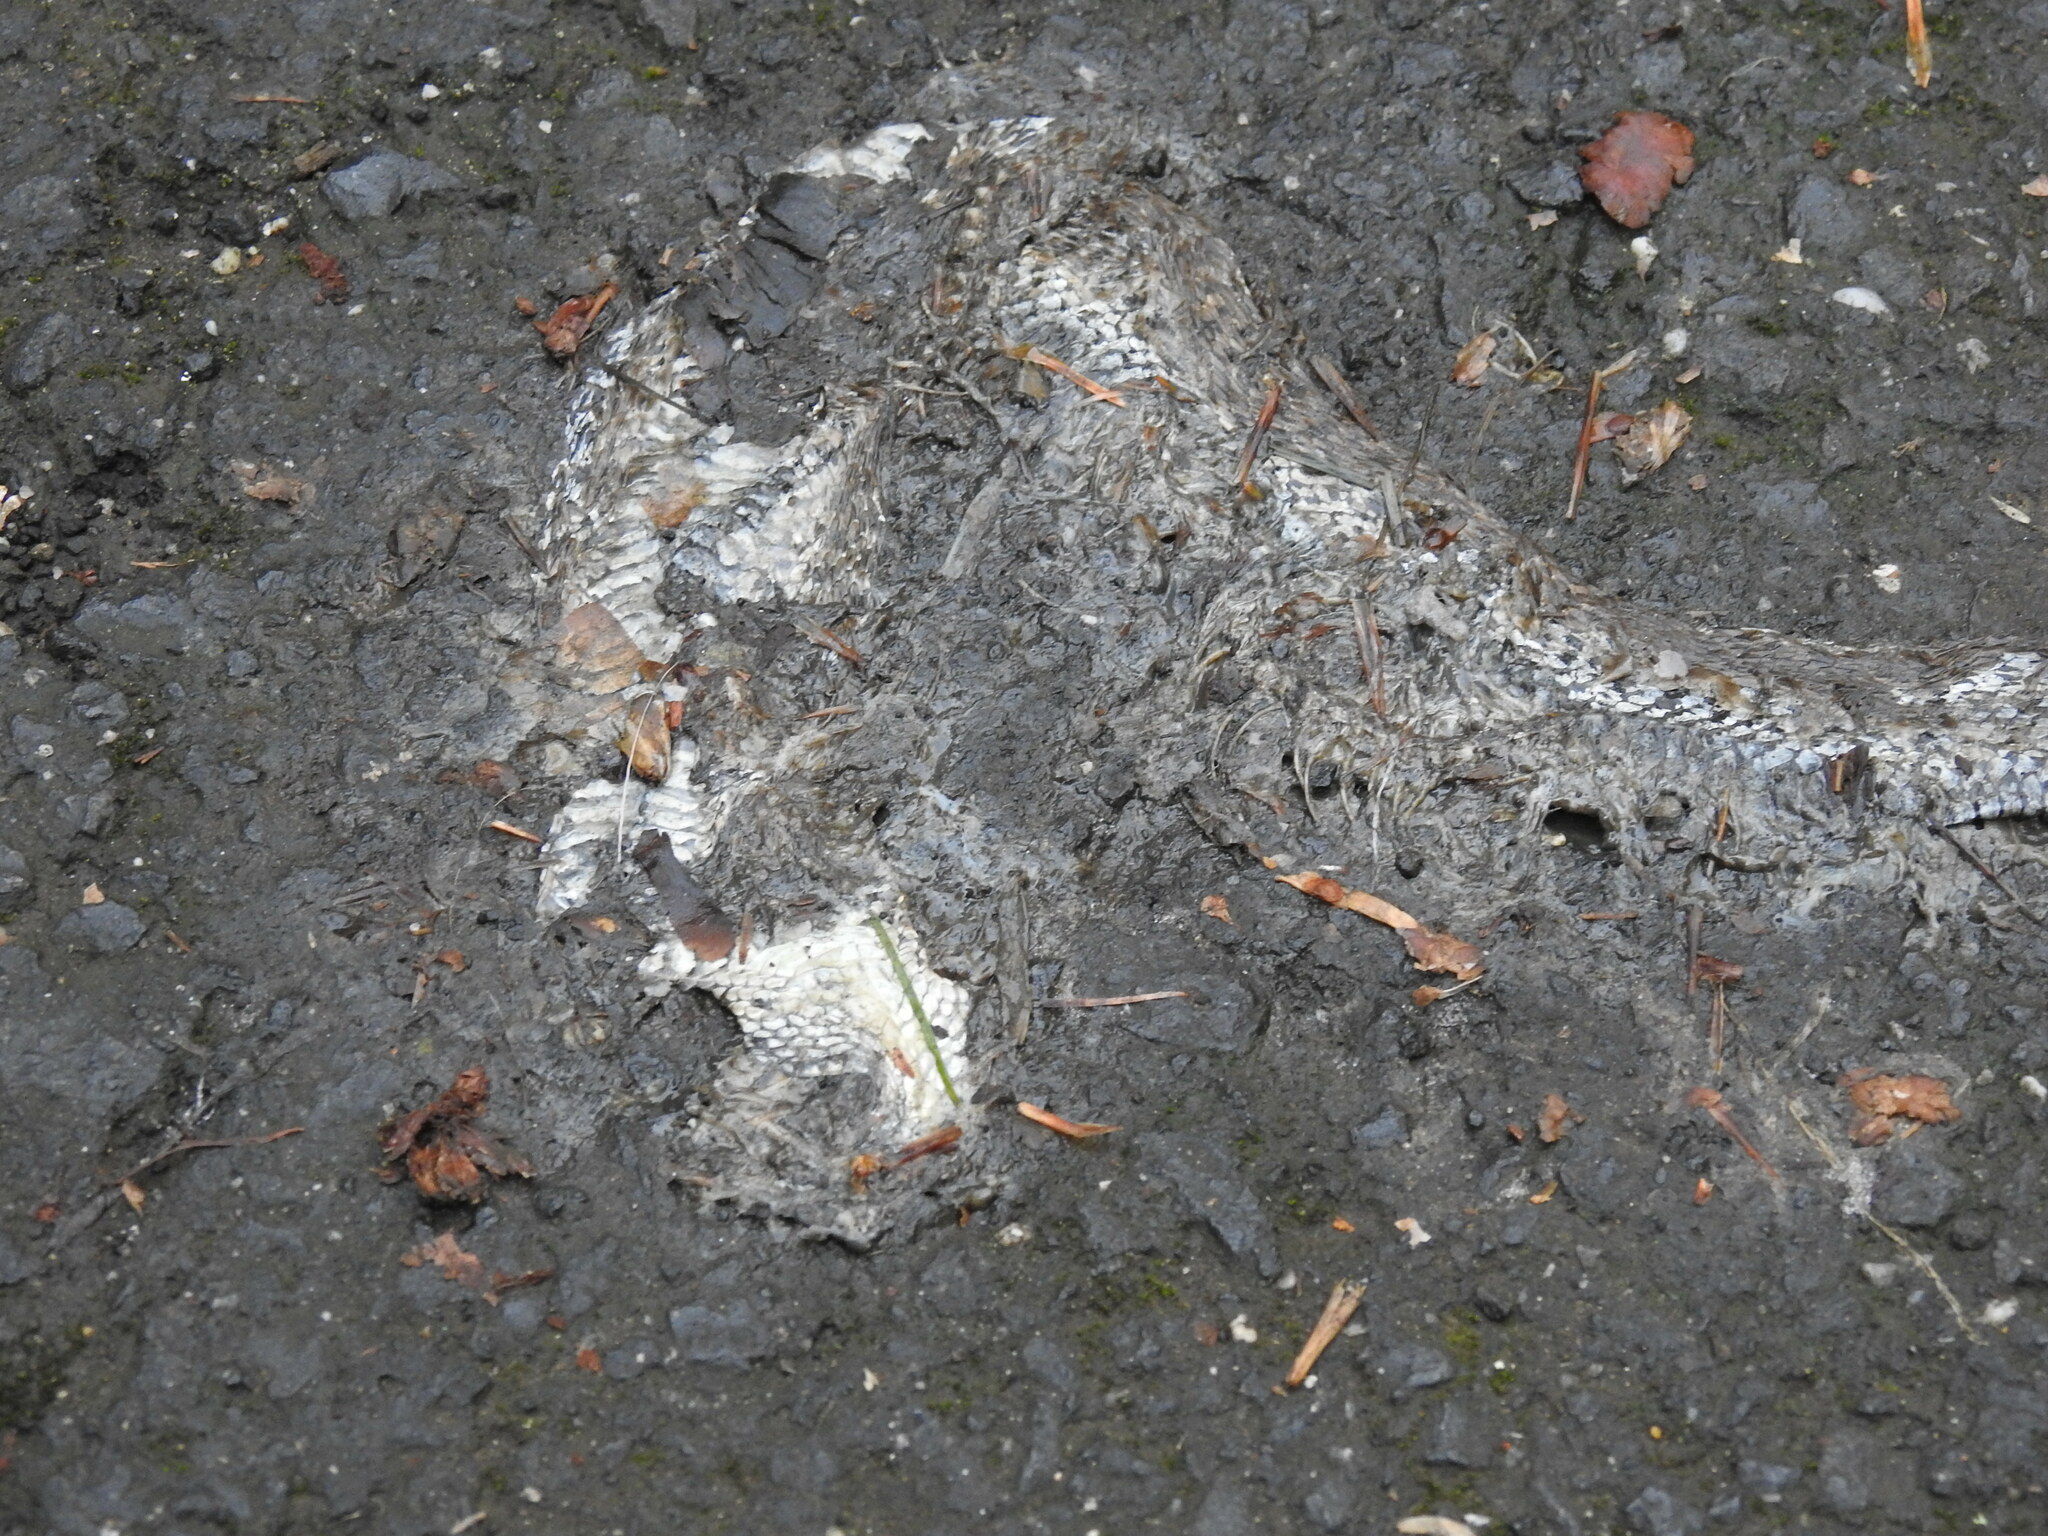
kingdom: Animalia
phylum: Chordata
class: Squamata
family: Colubridae
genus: Thamnophis
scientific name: Thamnophis elegans
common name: Western terrestrial garter snake
